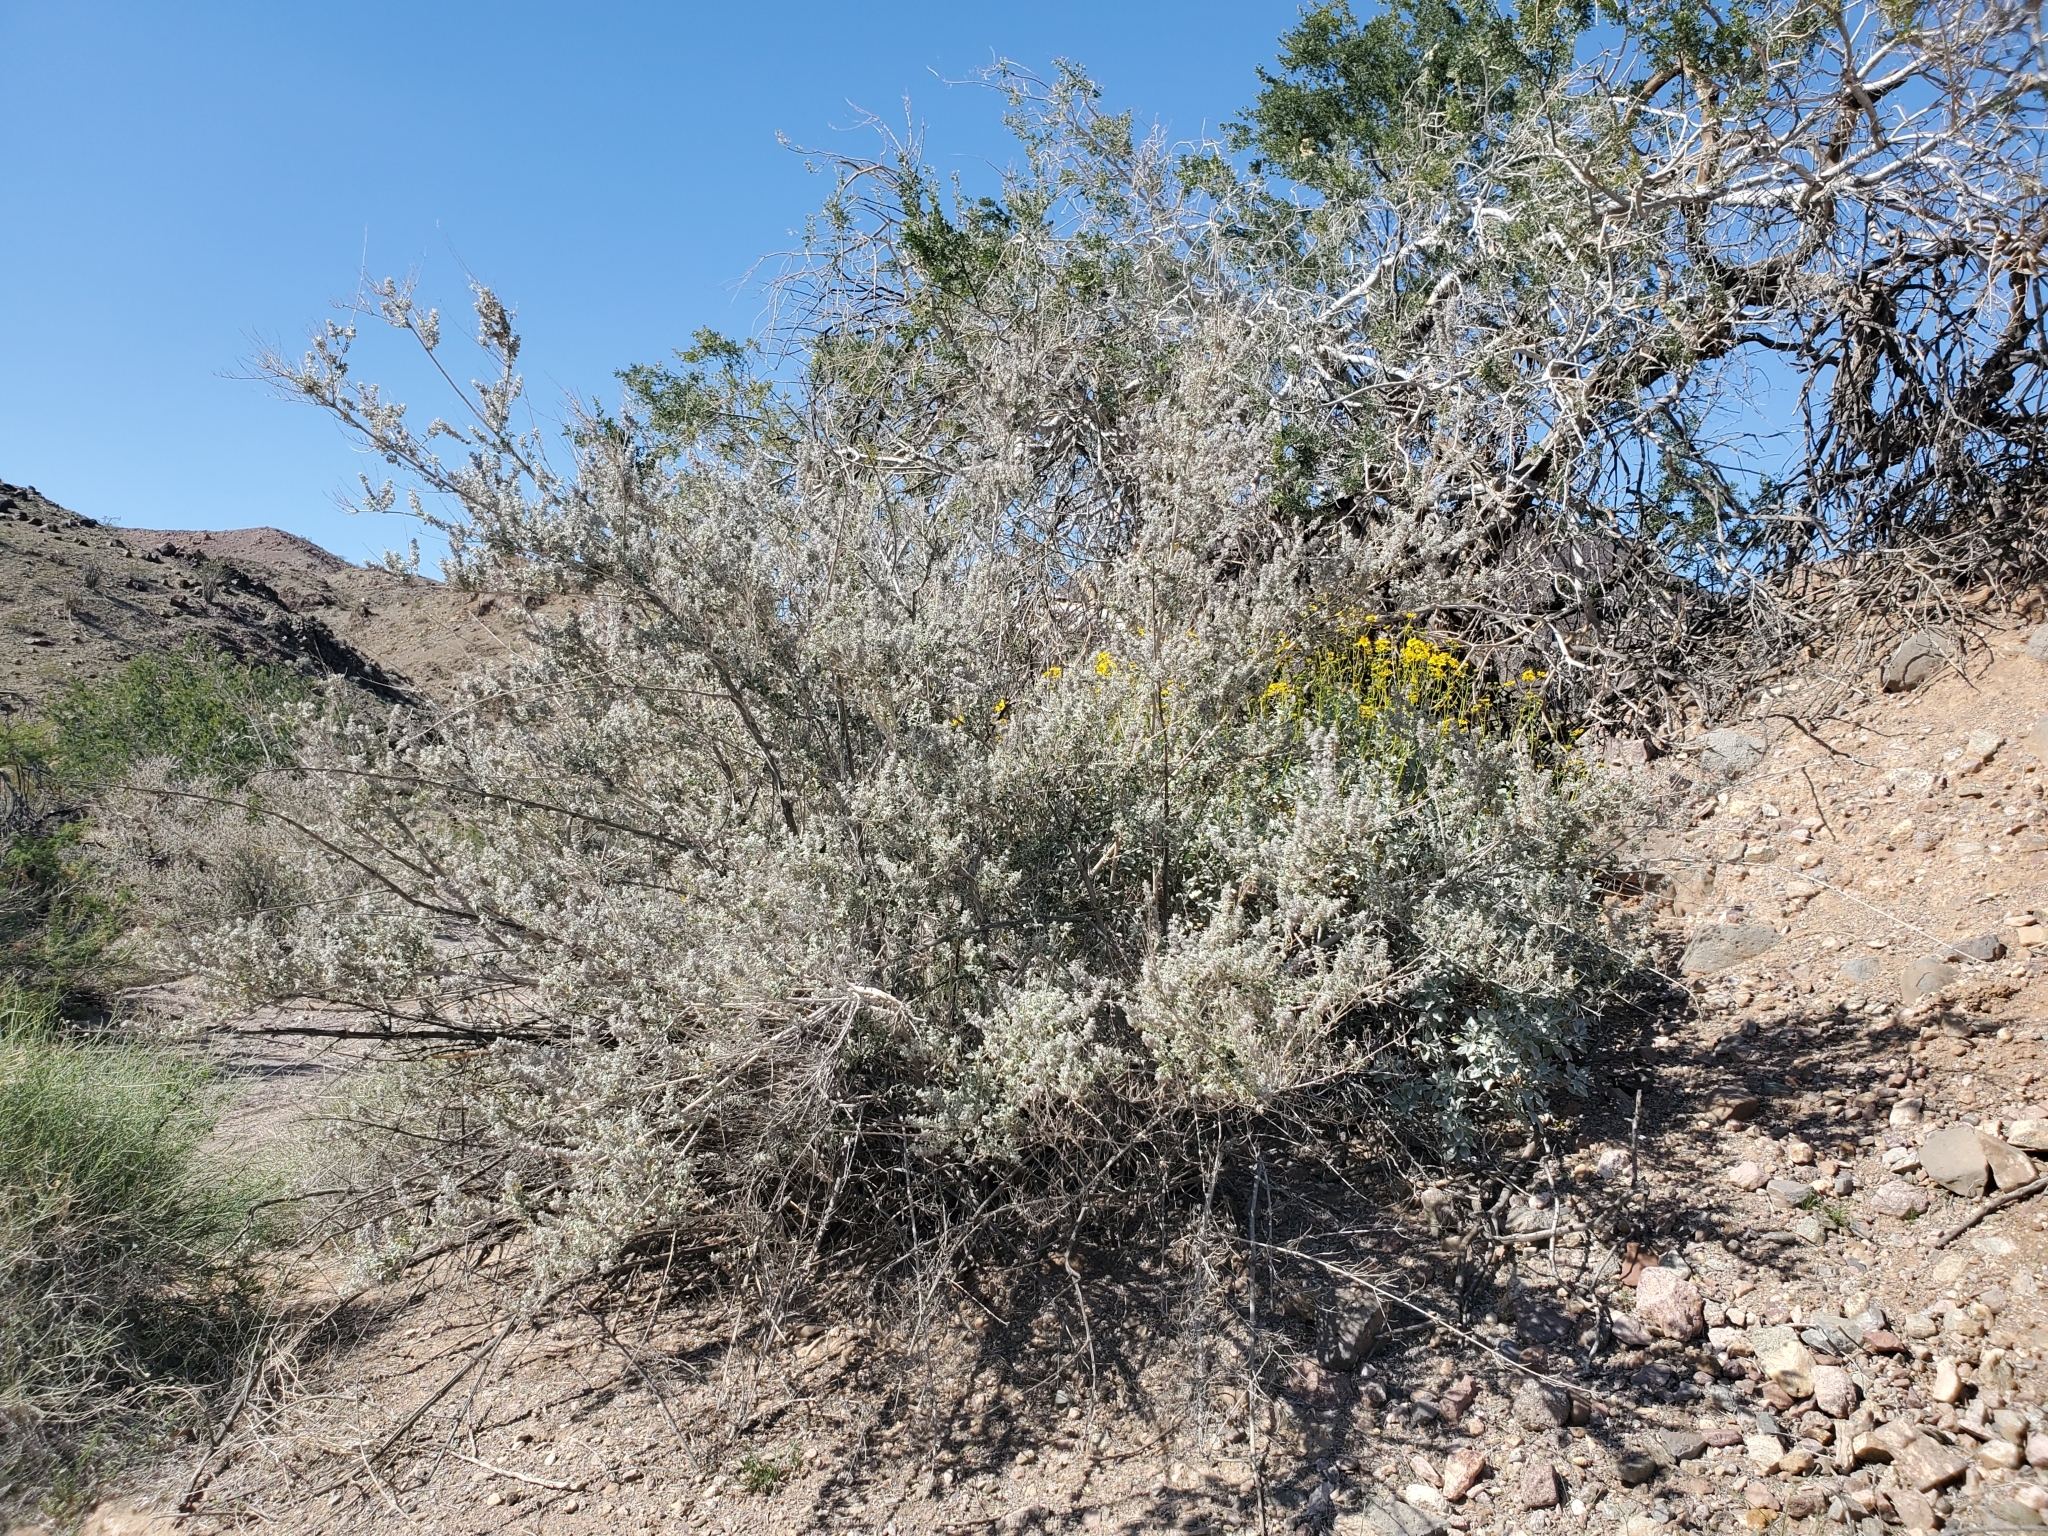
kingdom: Plantae
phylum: Tracheophyta
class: Magnoliopsida
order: Lamiales
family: Lamiaceae
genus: Condea
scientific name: Condea emoryi
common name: Chia
